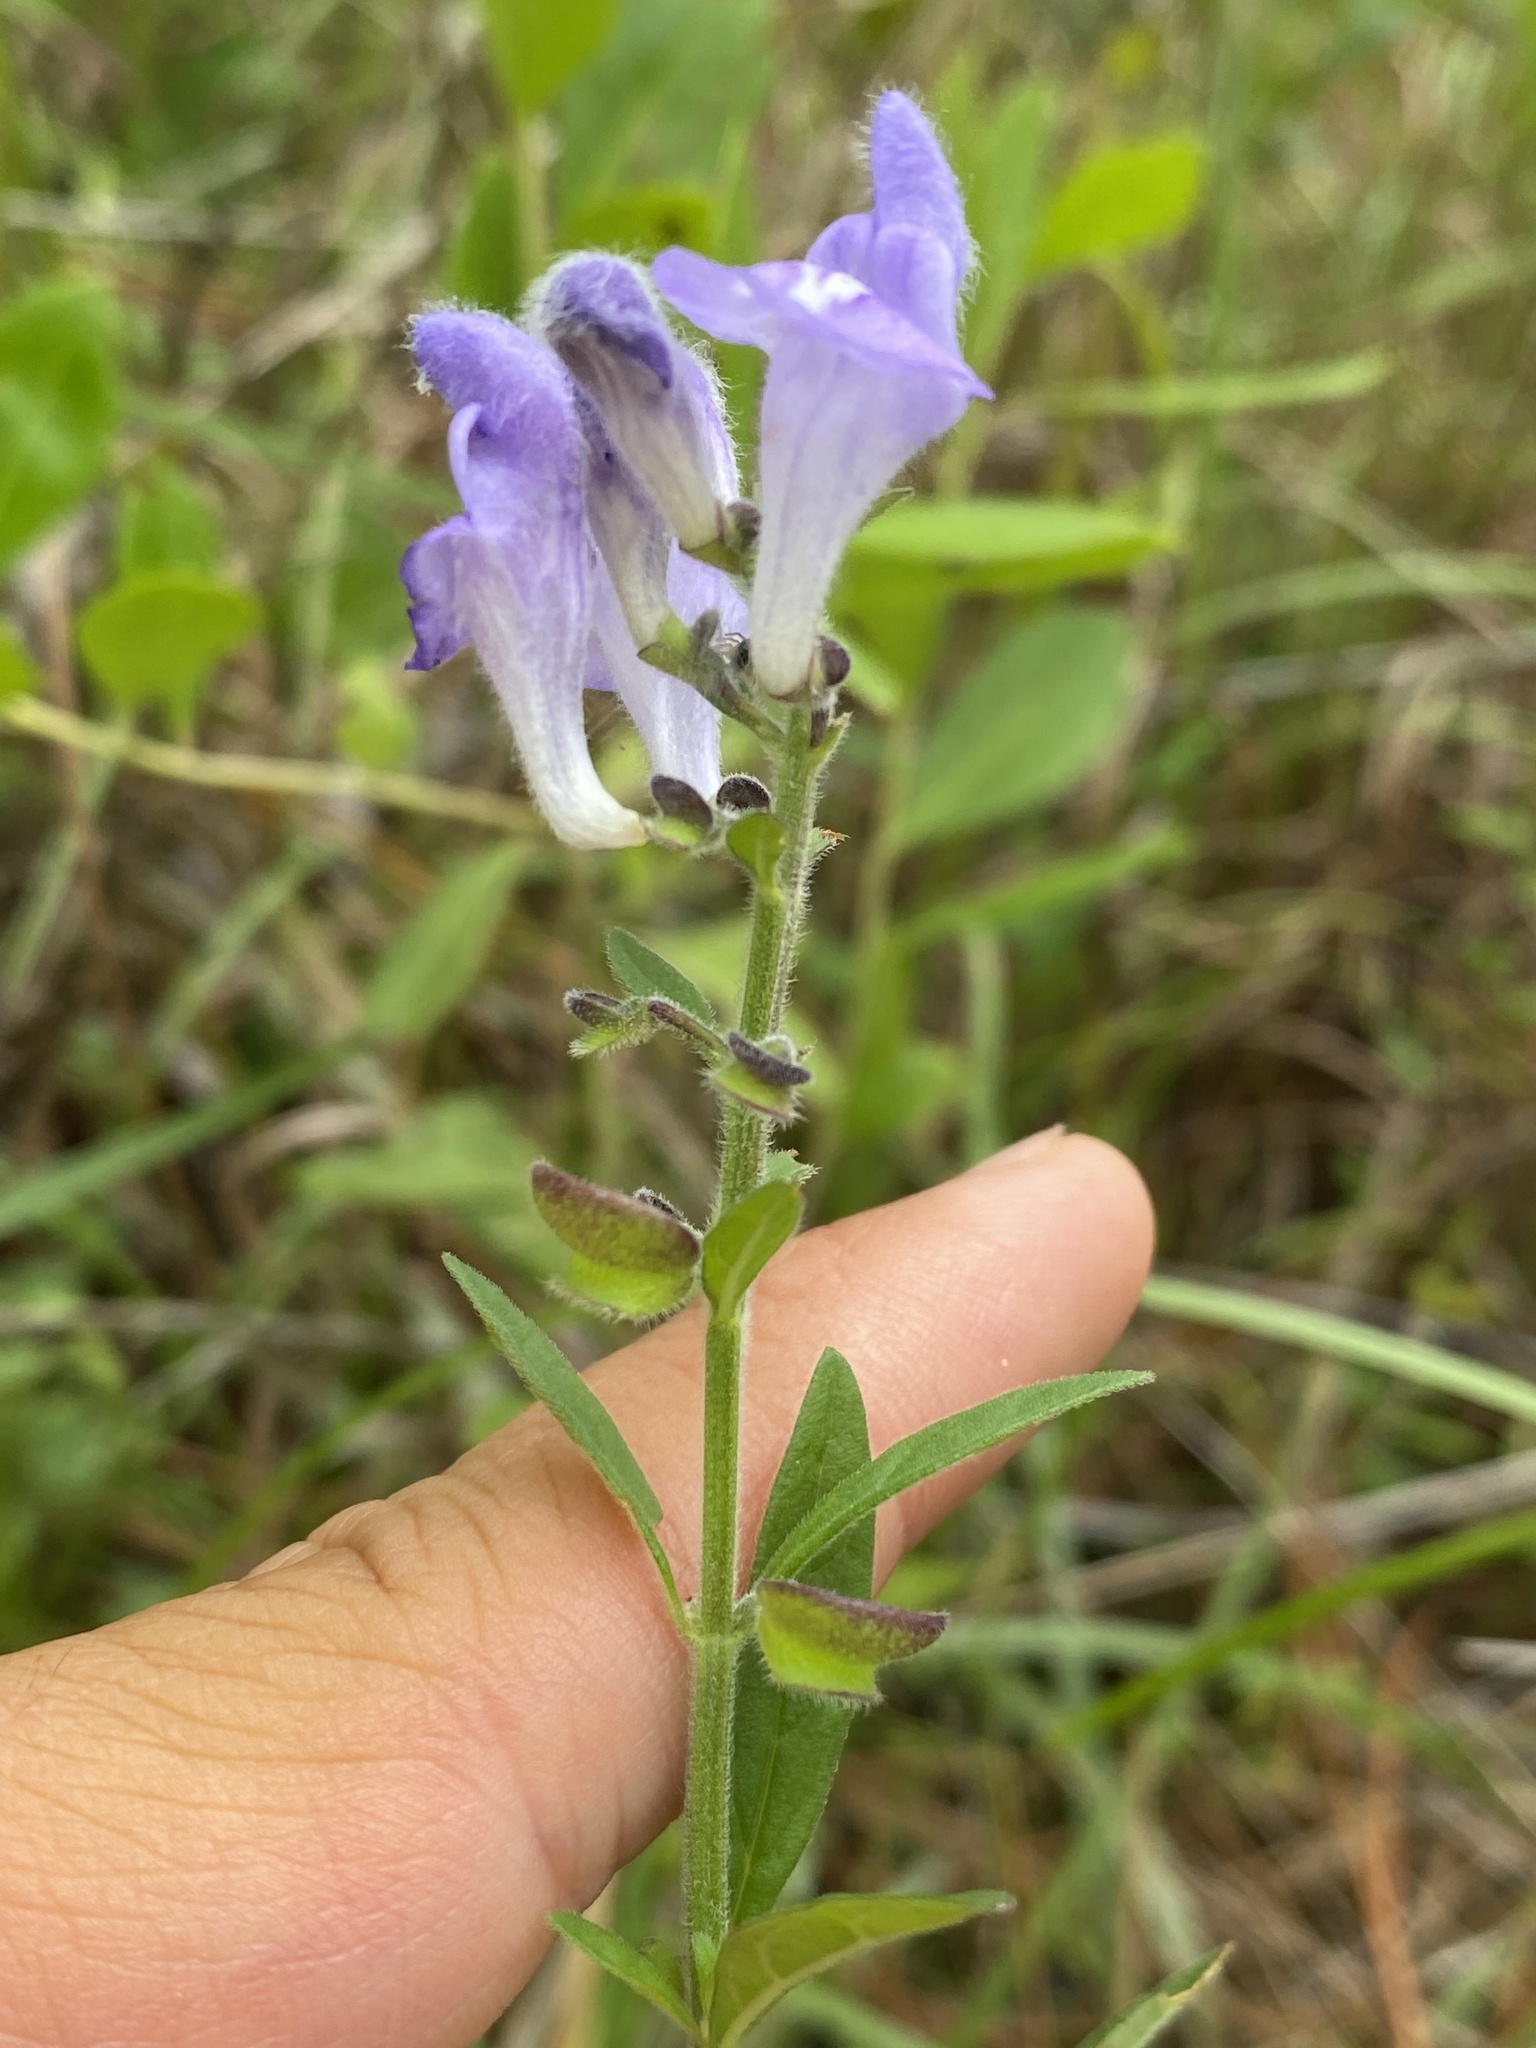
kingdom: Plantae
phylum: Tracheophyta
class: Magnoliopsida
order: Lamiales
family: Lamiaceae
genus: Scutellaria
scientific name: Scutellaria integrifolia
